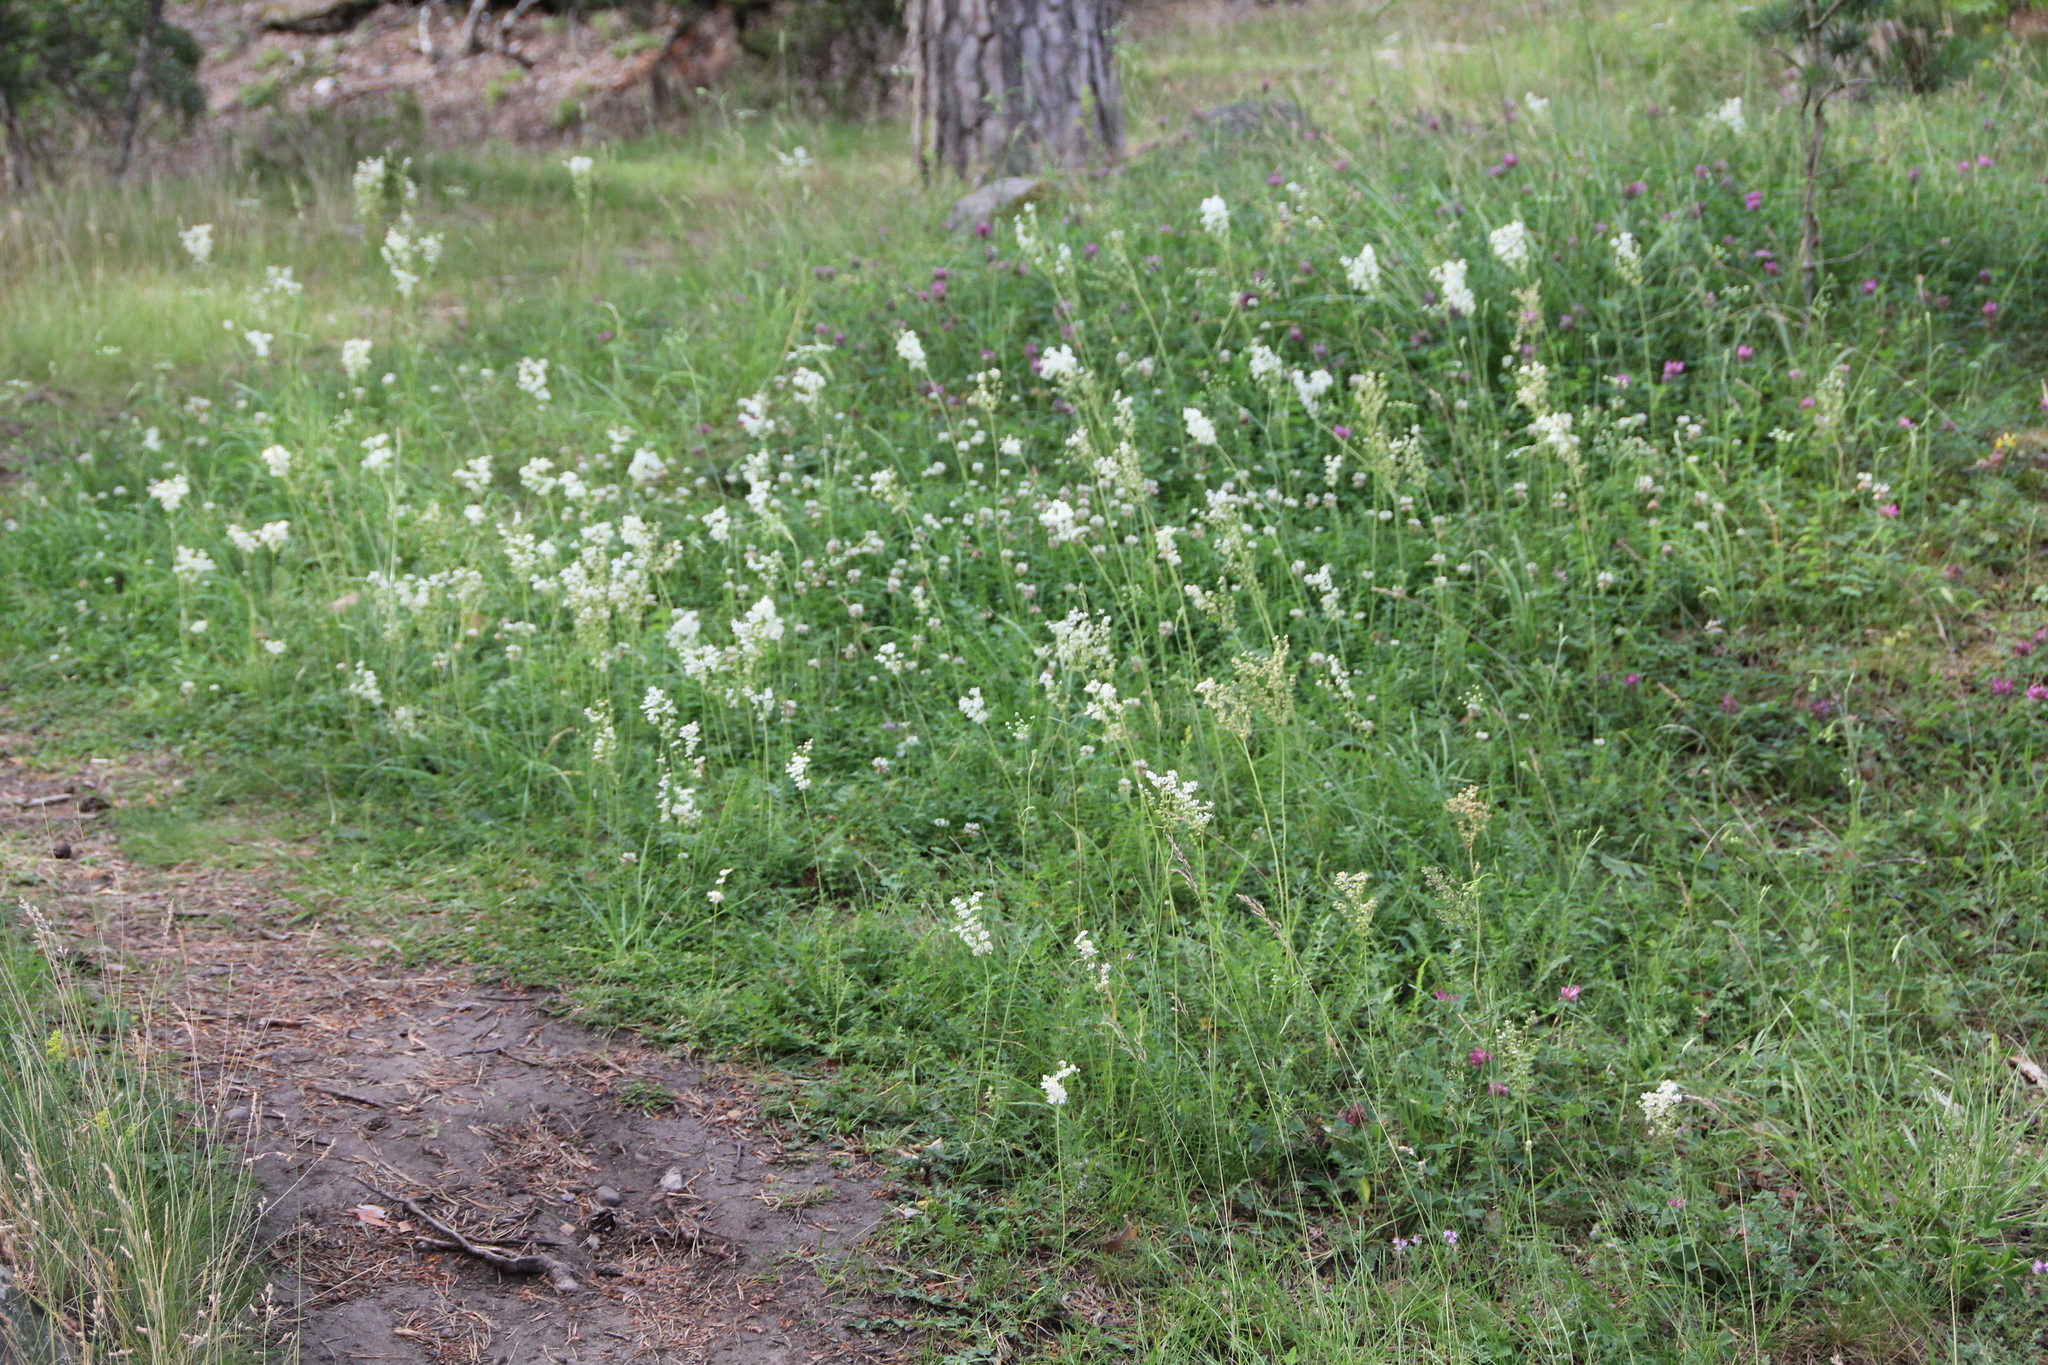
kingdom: Plantae
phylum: Tracheophyta
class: Magnoliopsida
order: Rosales
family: Rosaceae
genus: Filipendula
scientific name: Filipendula vulgaris
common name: Dropwort
